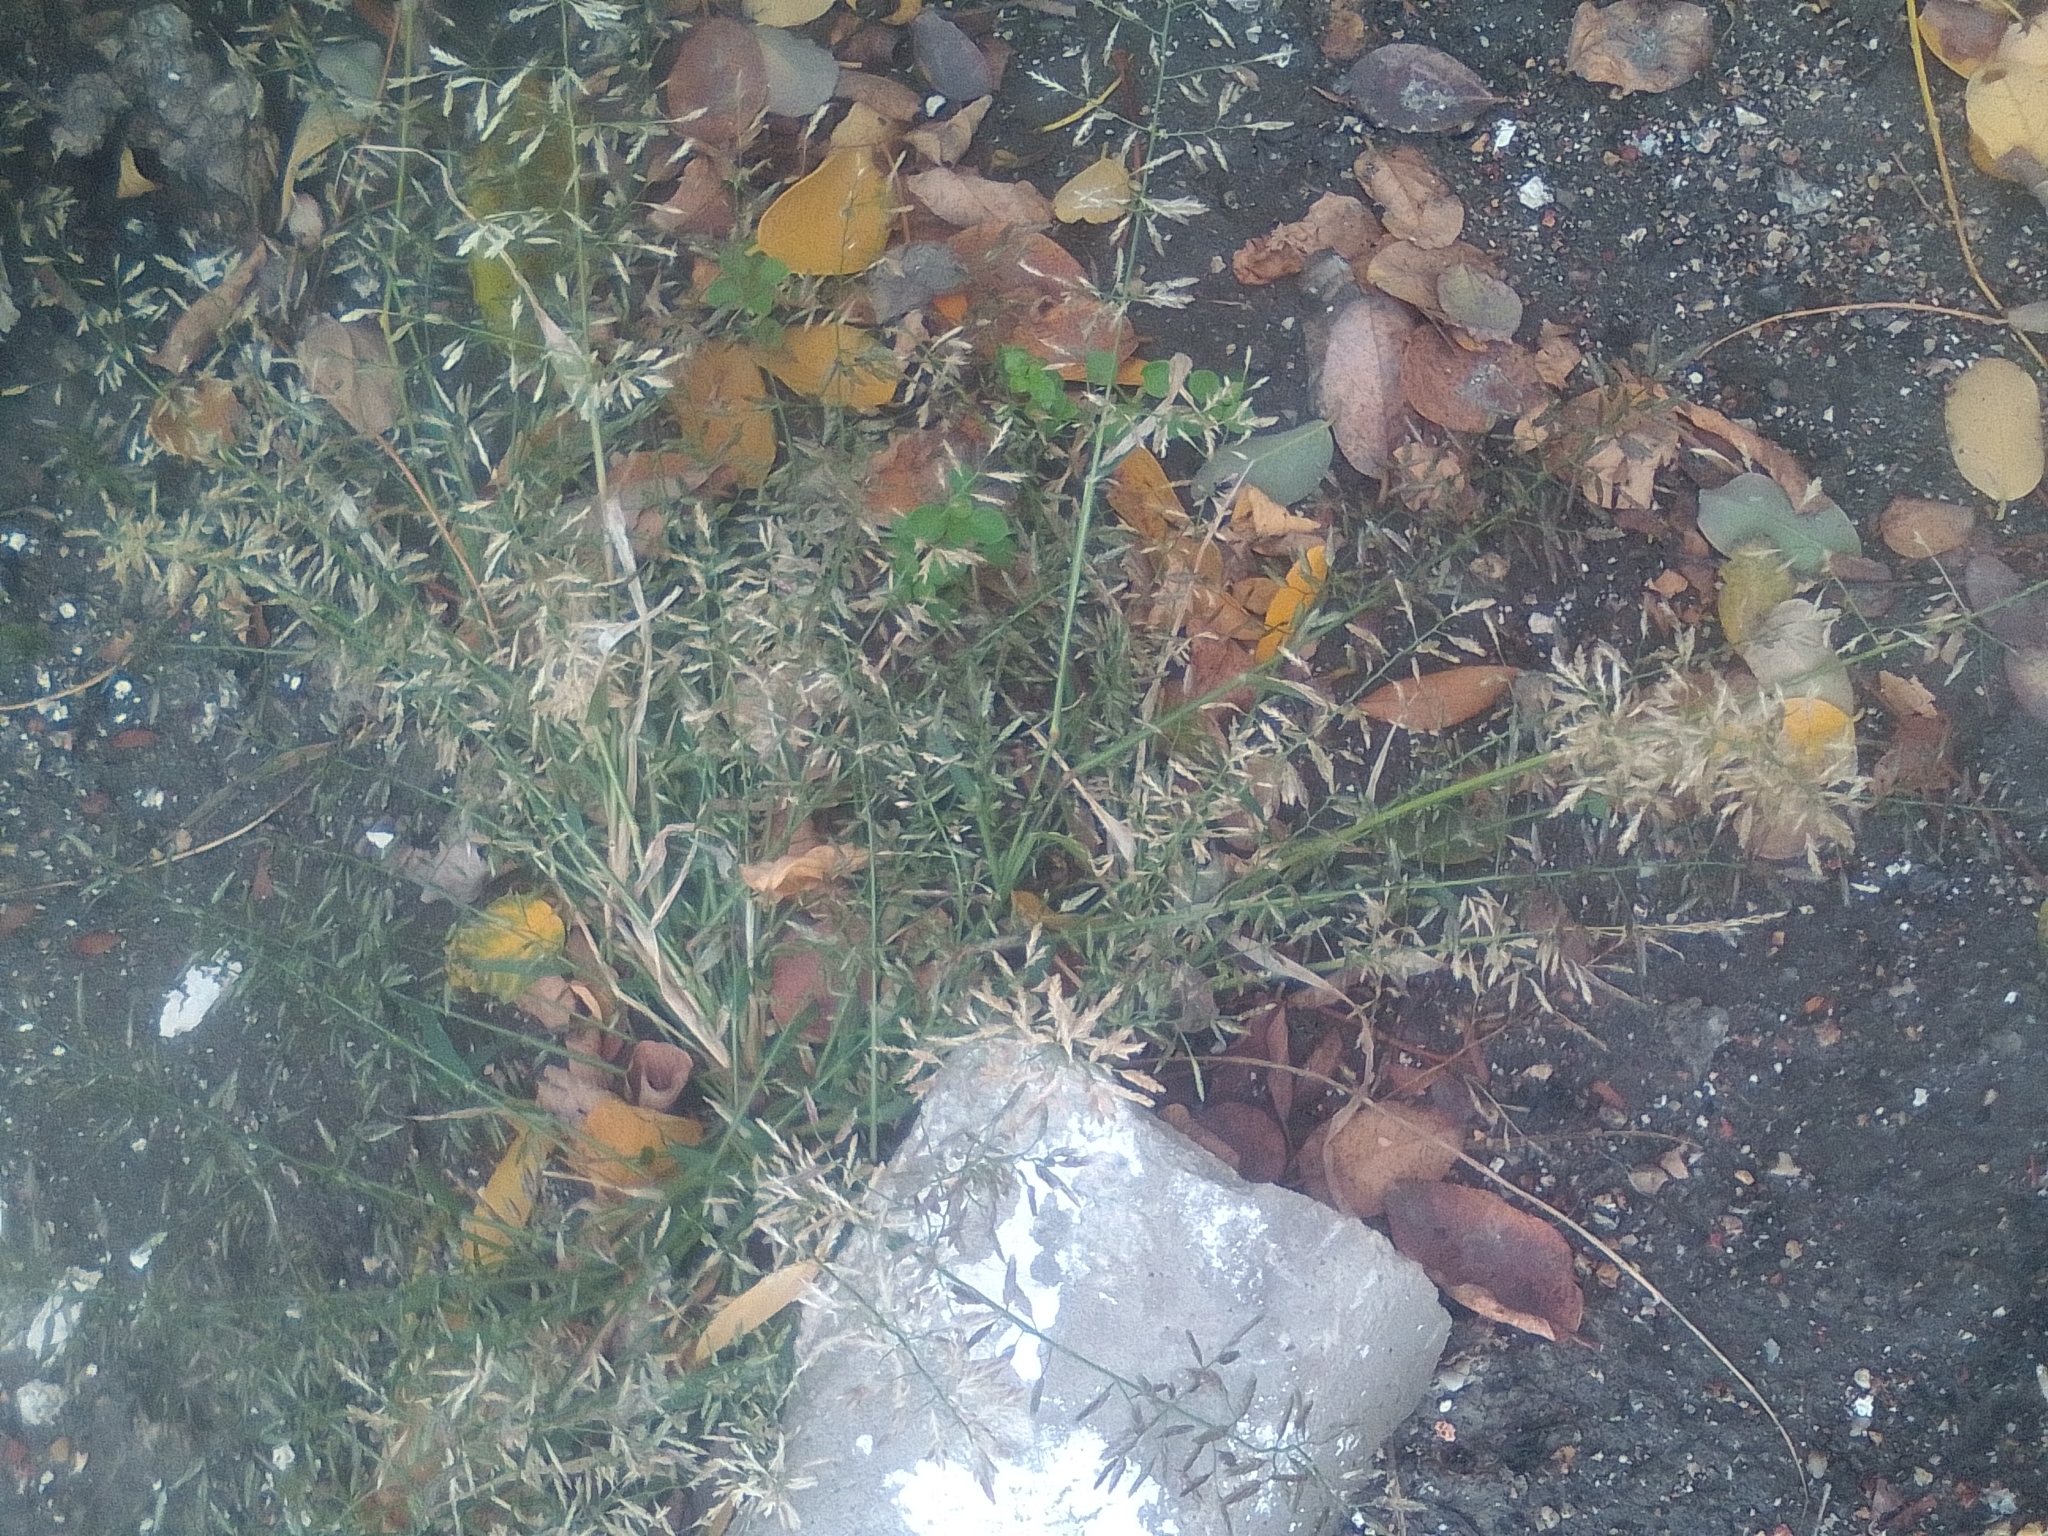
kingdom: Plantae
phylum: Tracheophyta
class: Liliopsida
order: Poales
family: Poaceae
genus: Eragrostis
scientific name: Eragrostis minor
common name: Small love-grass
